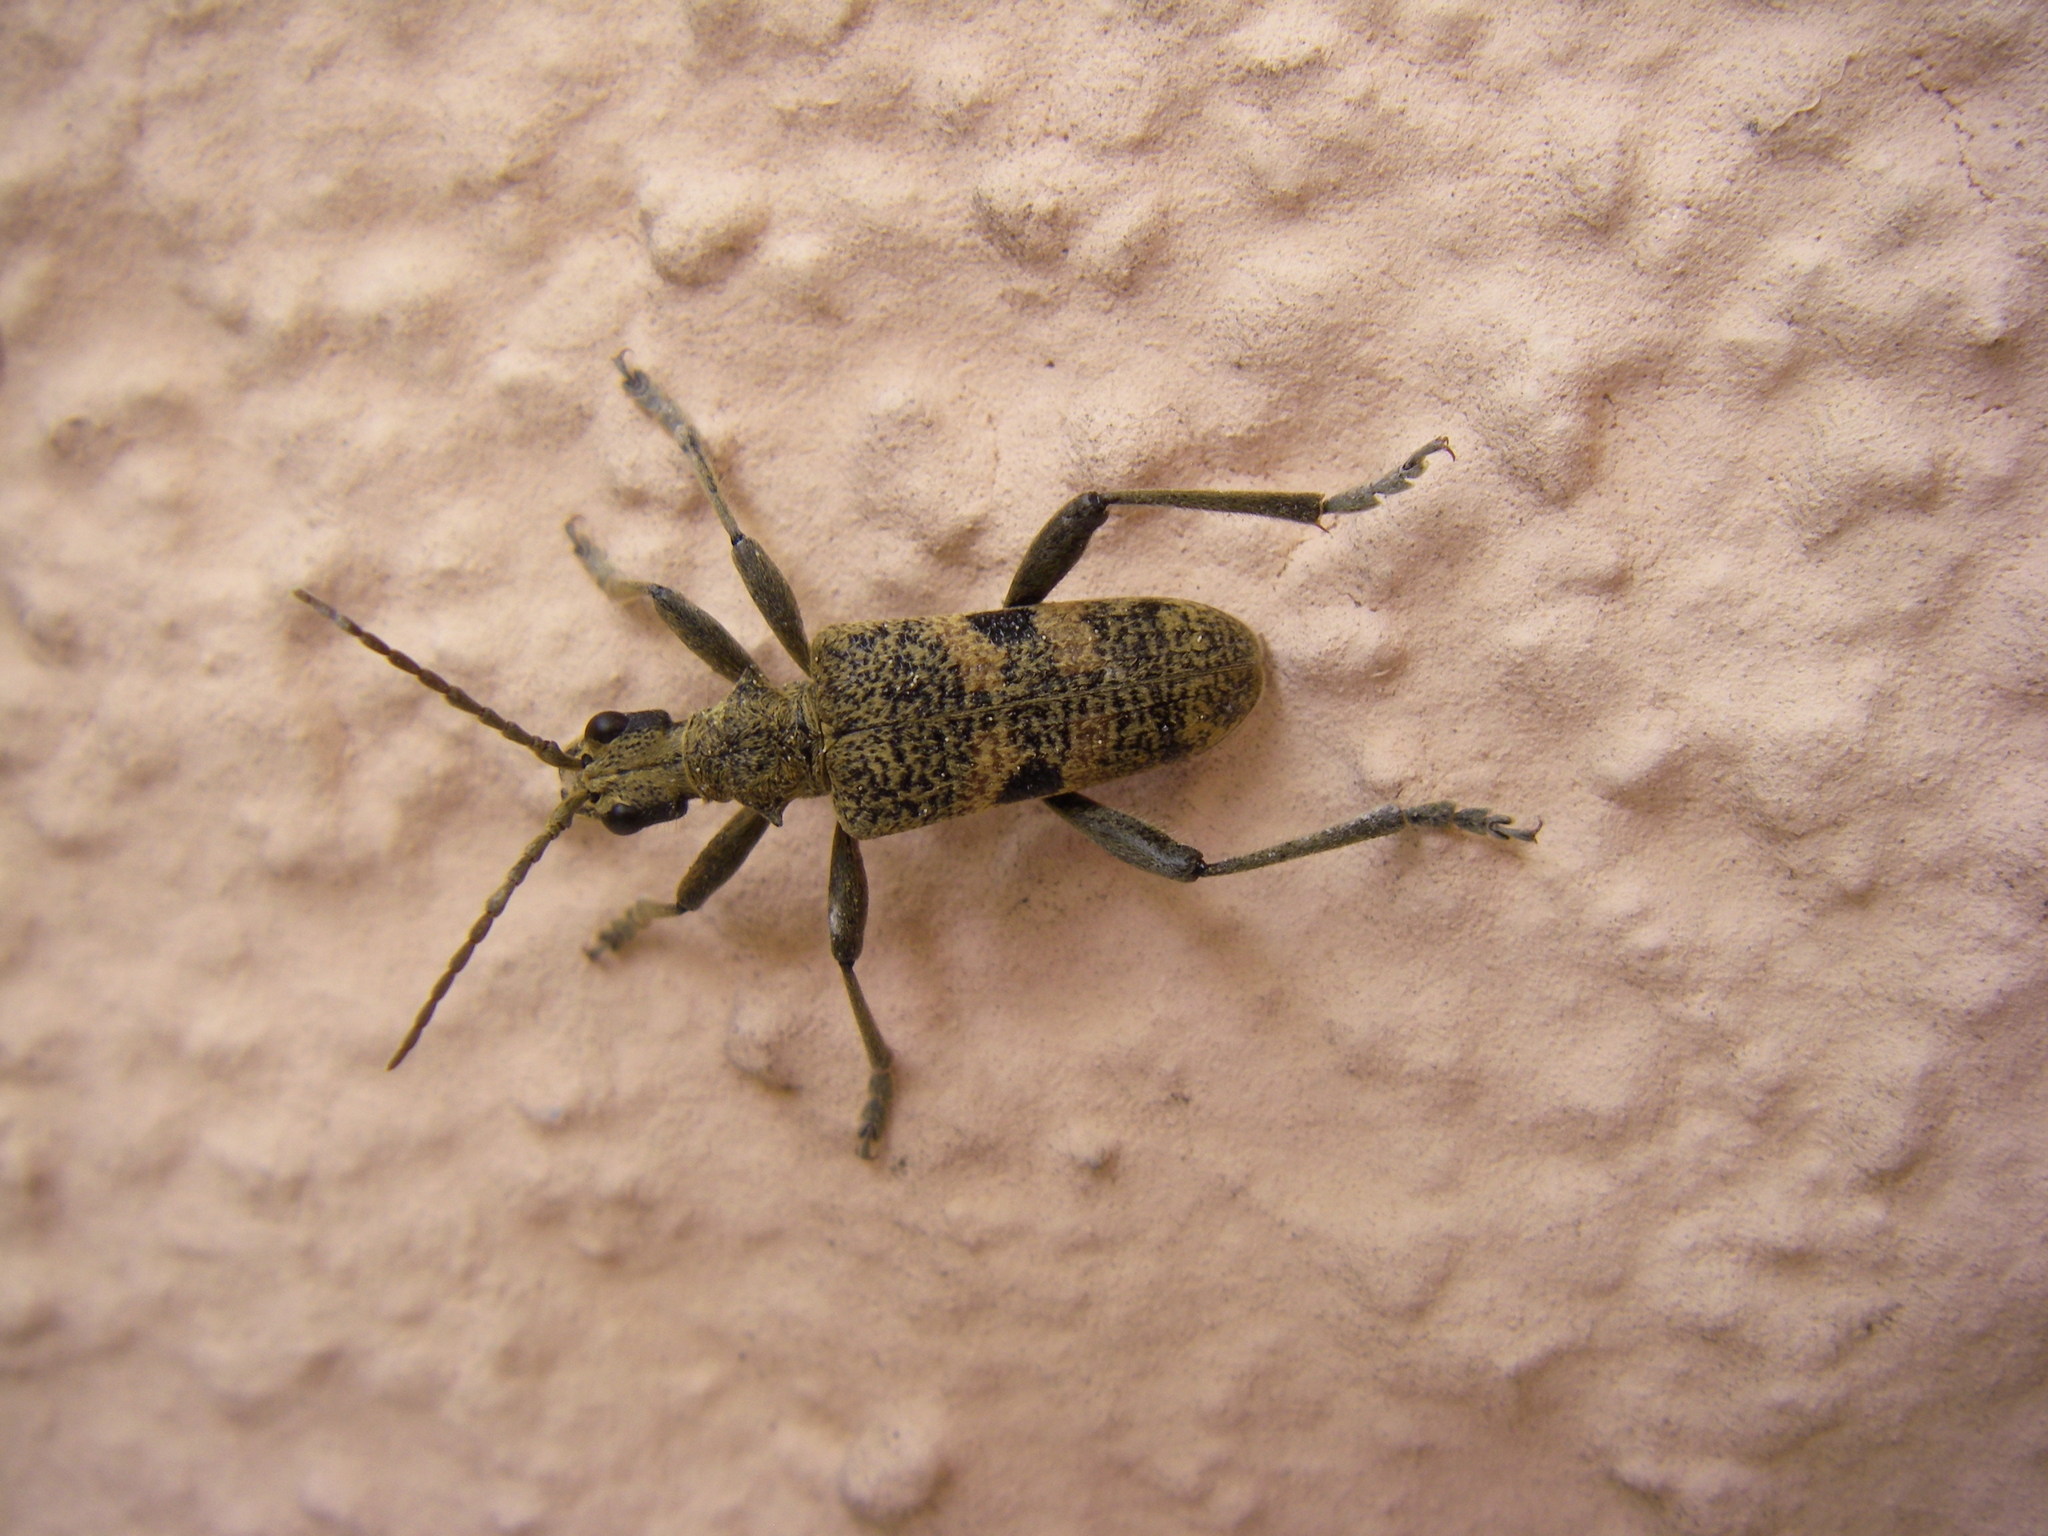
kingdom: Animalia
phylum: Arthropoda
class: Insecta
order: Coleoptera
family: Cerambycidae
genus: Rhagium
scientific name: Rhagium mordax
